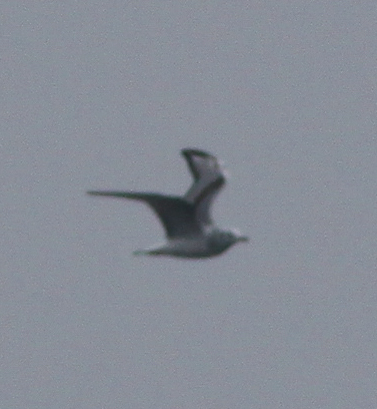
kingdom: Animalia
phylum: Chordata
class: Aves
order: Charadriiformes
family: Laridae
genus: Chroicocephalus
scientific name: Chroicocephalus philadelphia
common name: Bonaparte's gull
